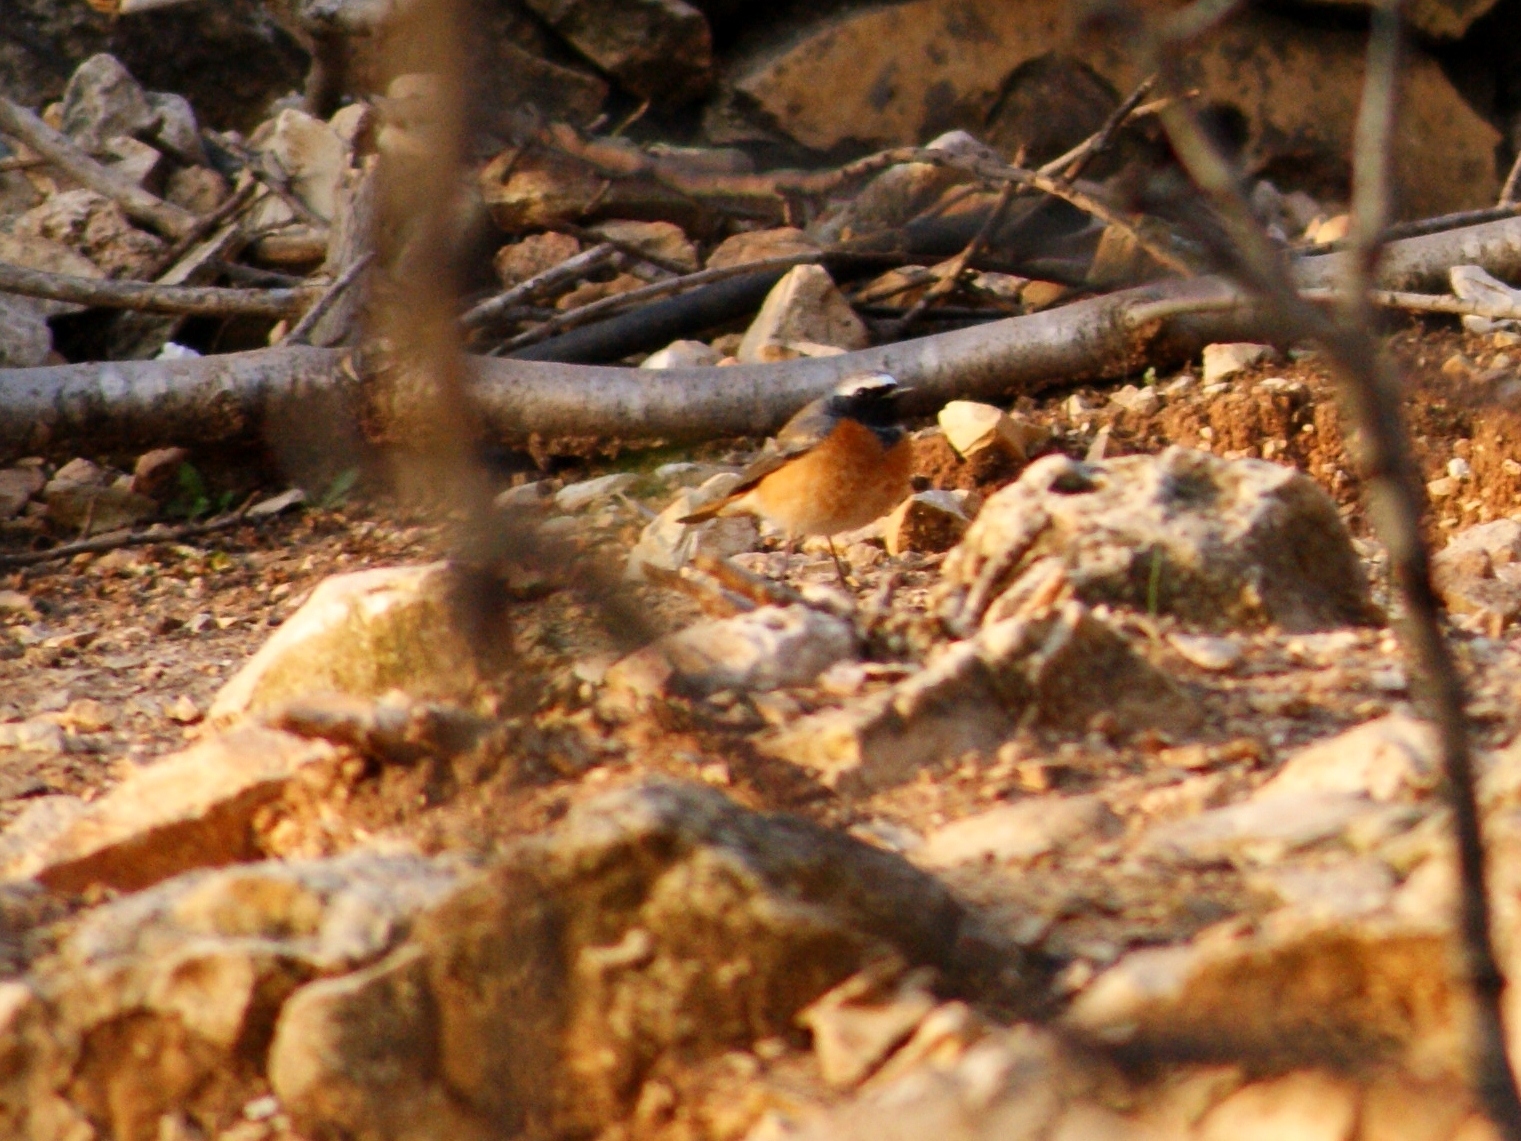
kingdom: Animalia
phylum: Chordata
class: Aves
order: Passeriformes
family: Muscicapidae
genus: Phoenicurus
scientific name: Phoenicurus phoenicurus
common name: Common redstart
